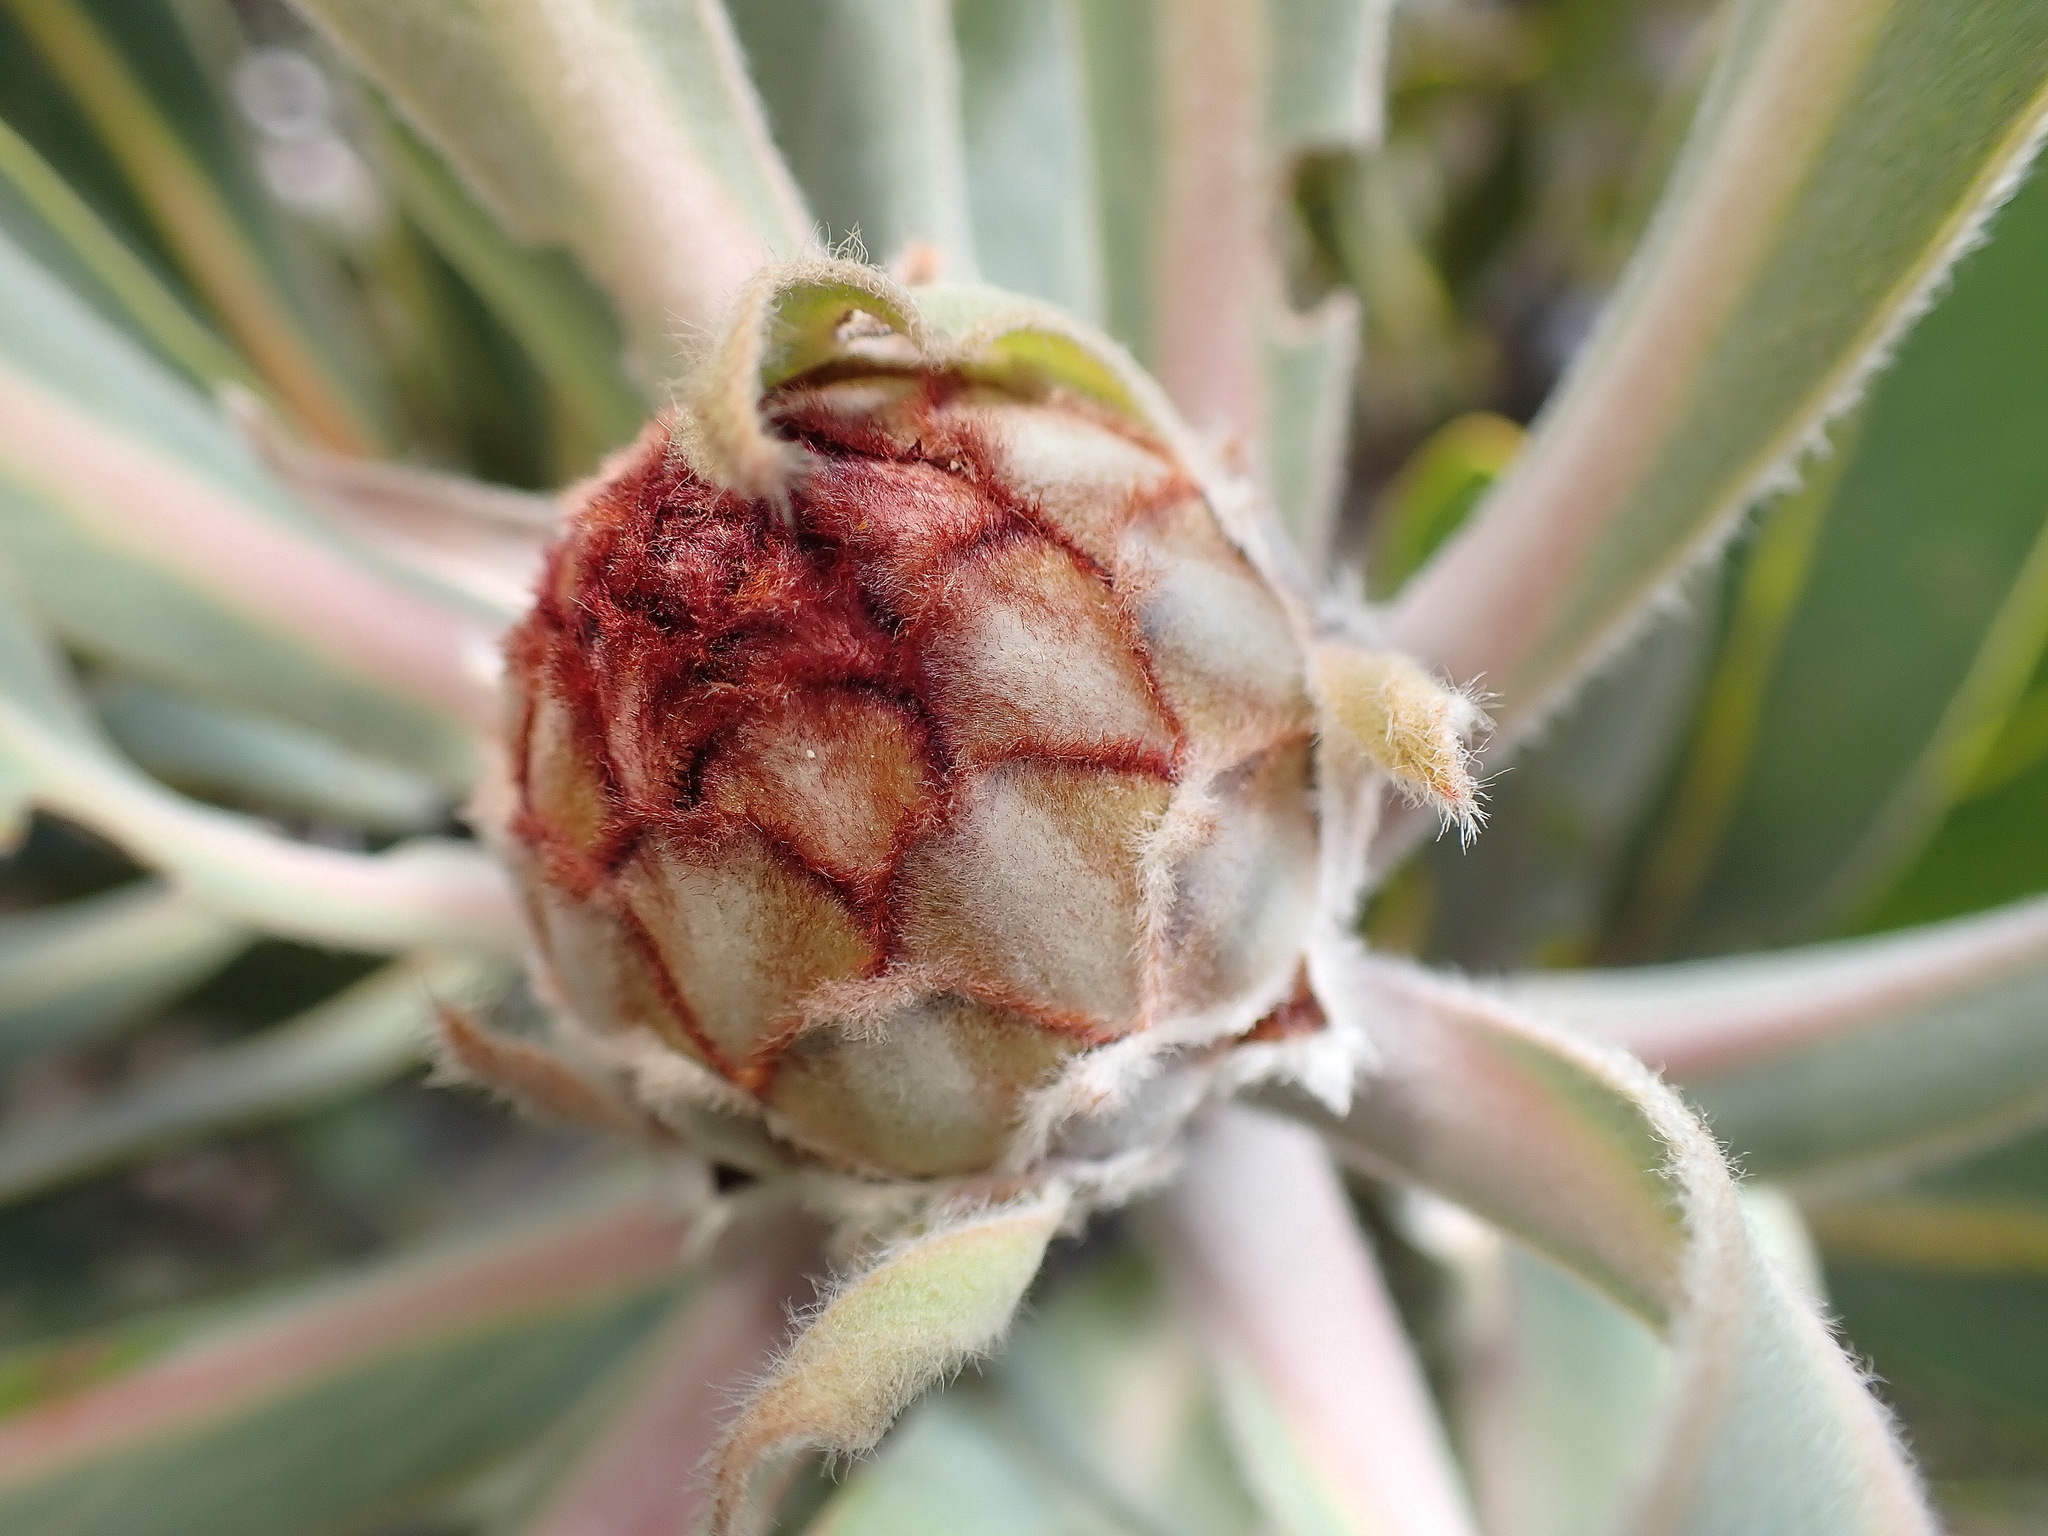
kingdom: Plantae
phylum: Tracheophyta
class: Magnoliopsida
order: Proteales
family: Proteaceae
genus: Protea
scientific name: Protea lorifolia
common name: Strap-leaved protea
